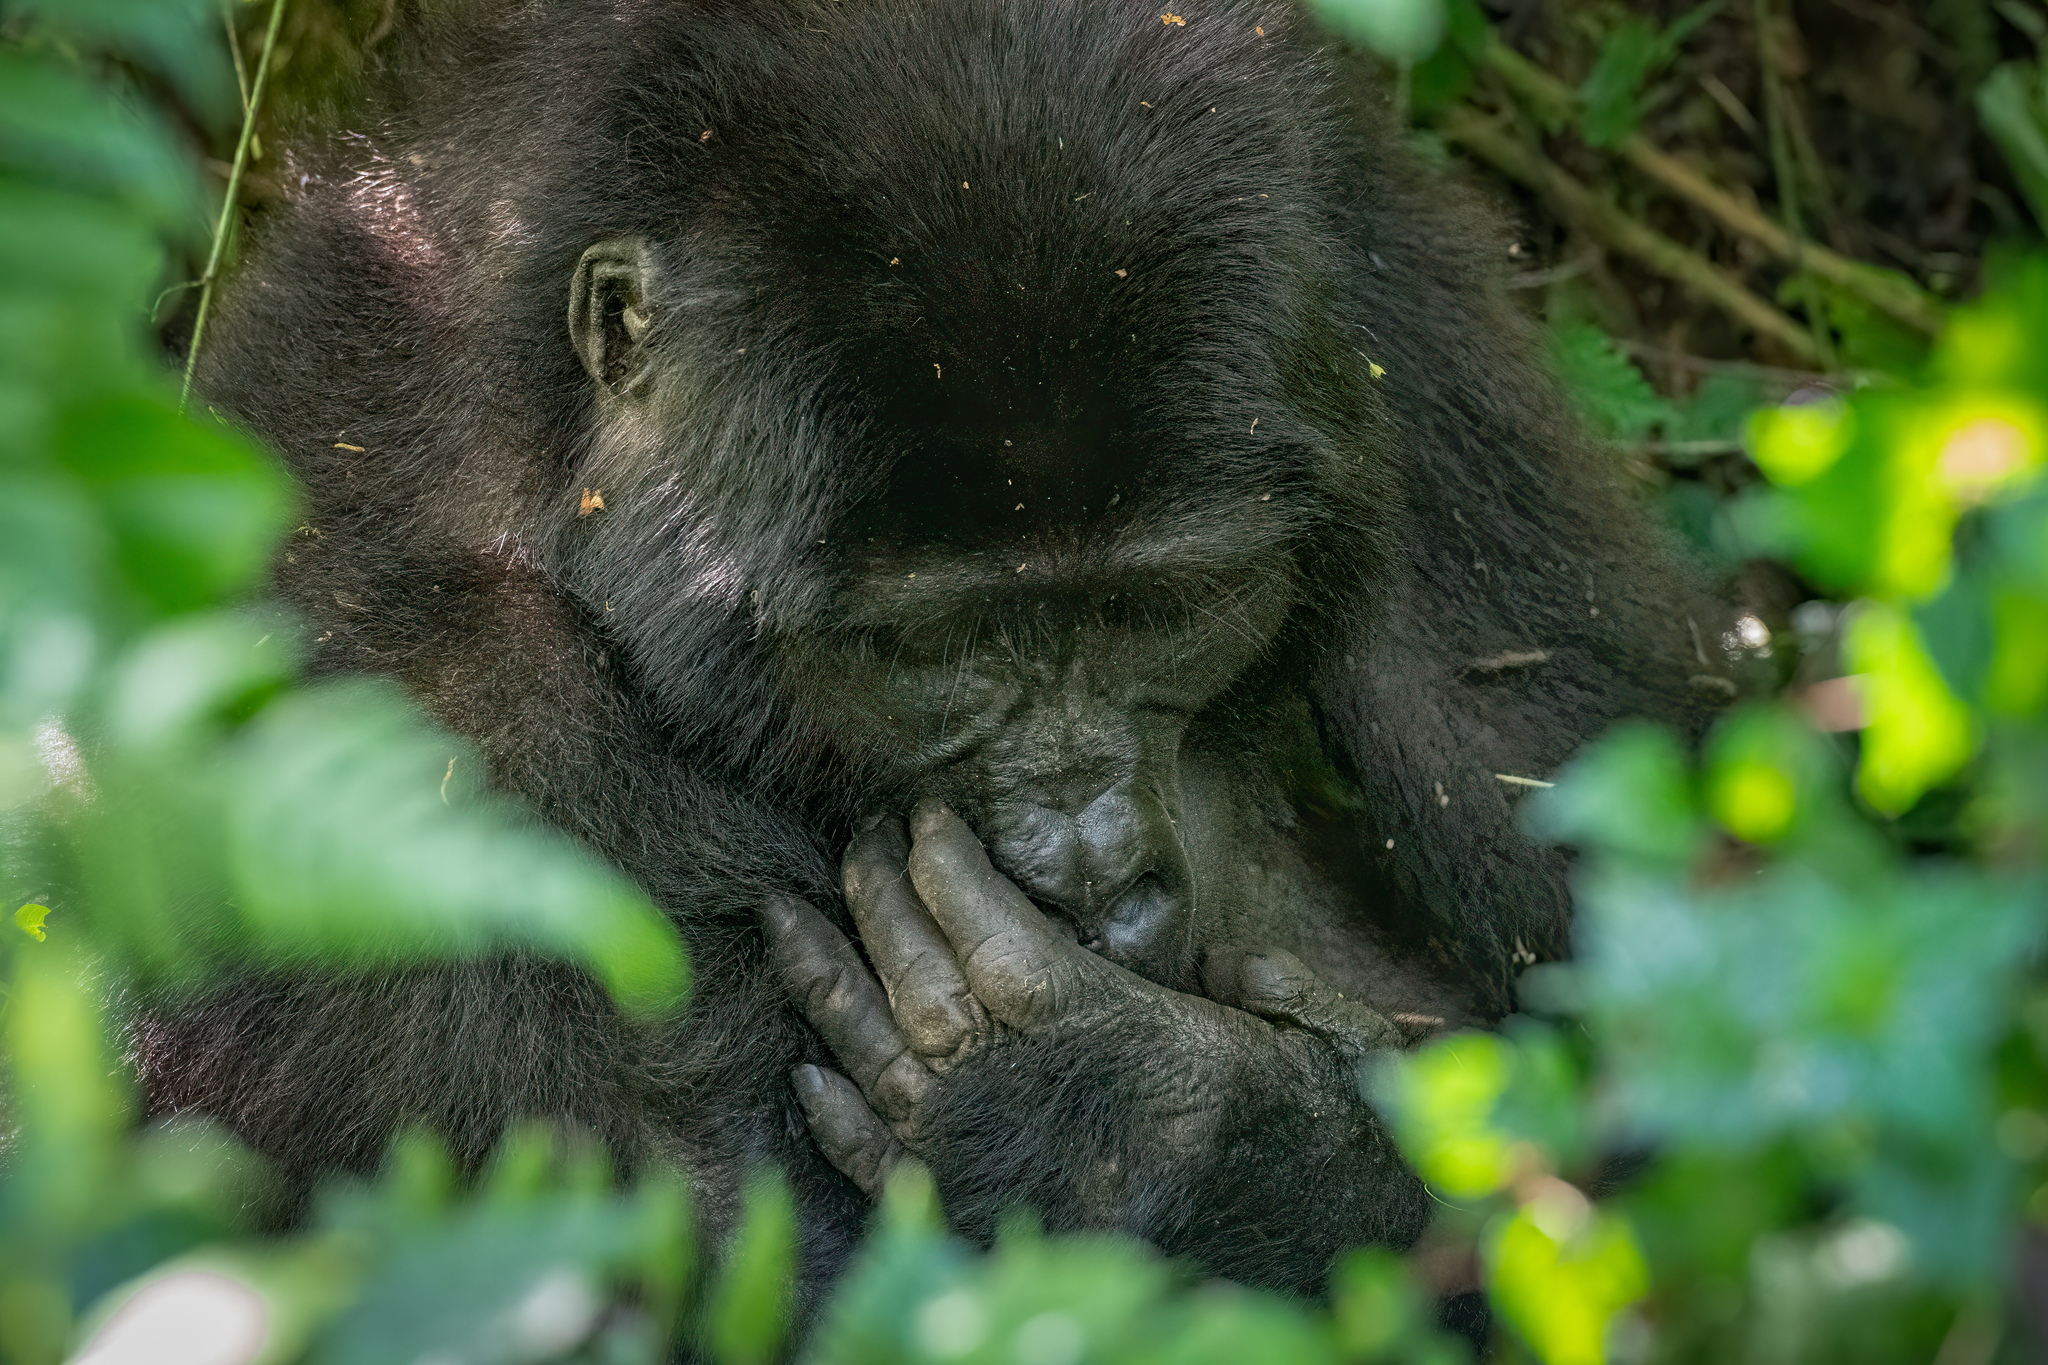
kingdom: Animalia
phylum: Chordata
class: Mammalia
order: Primates
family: Hominidae
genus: Gorilla
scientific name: Gorilla beringei
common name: Eastern gorilla
